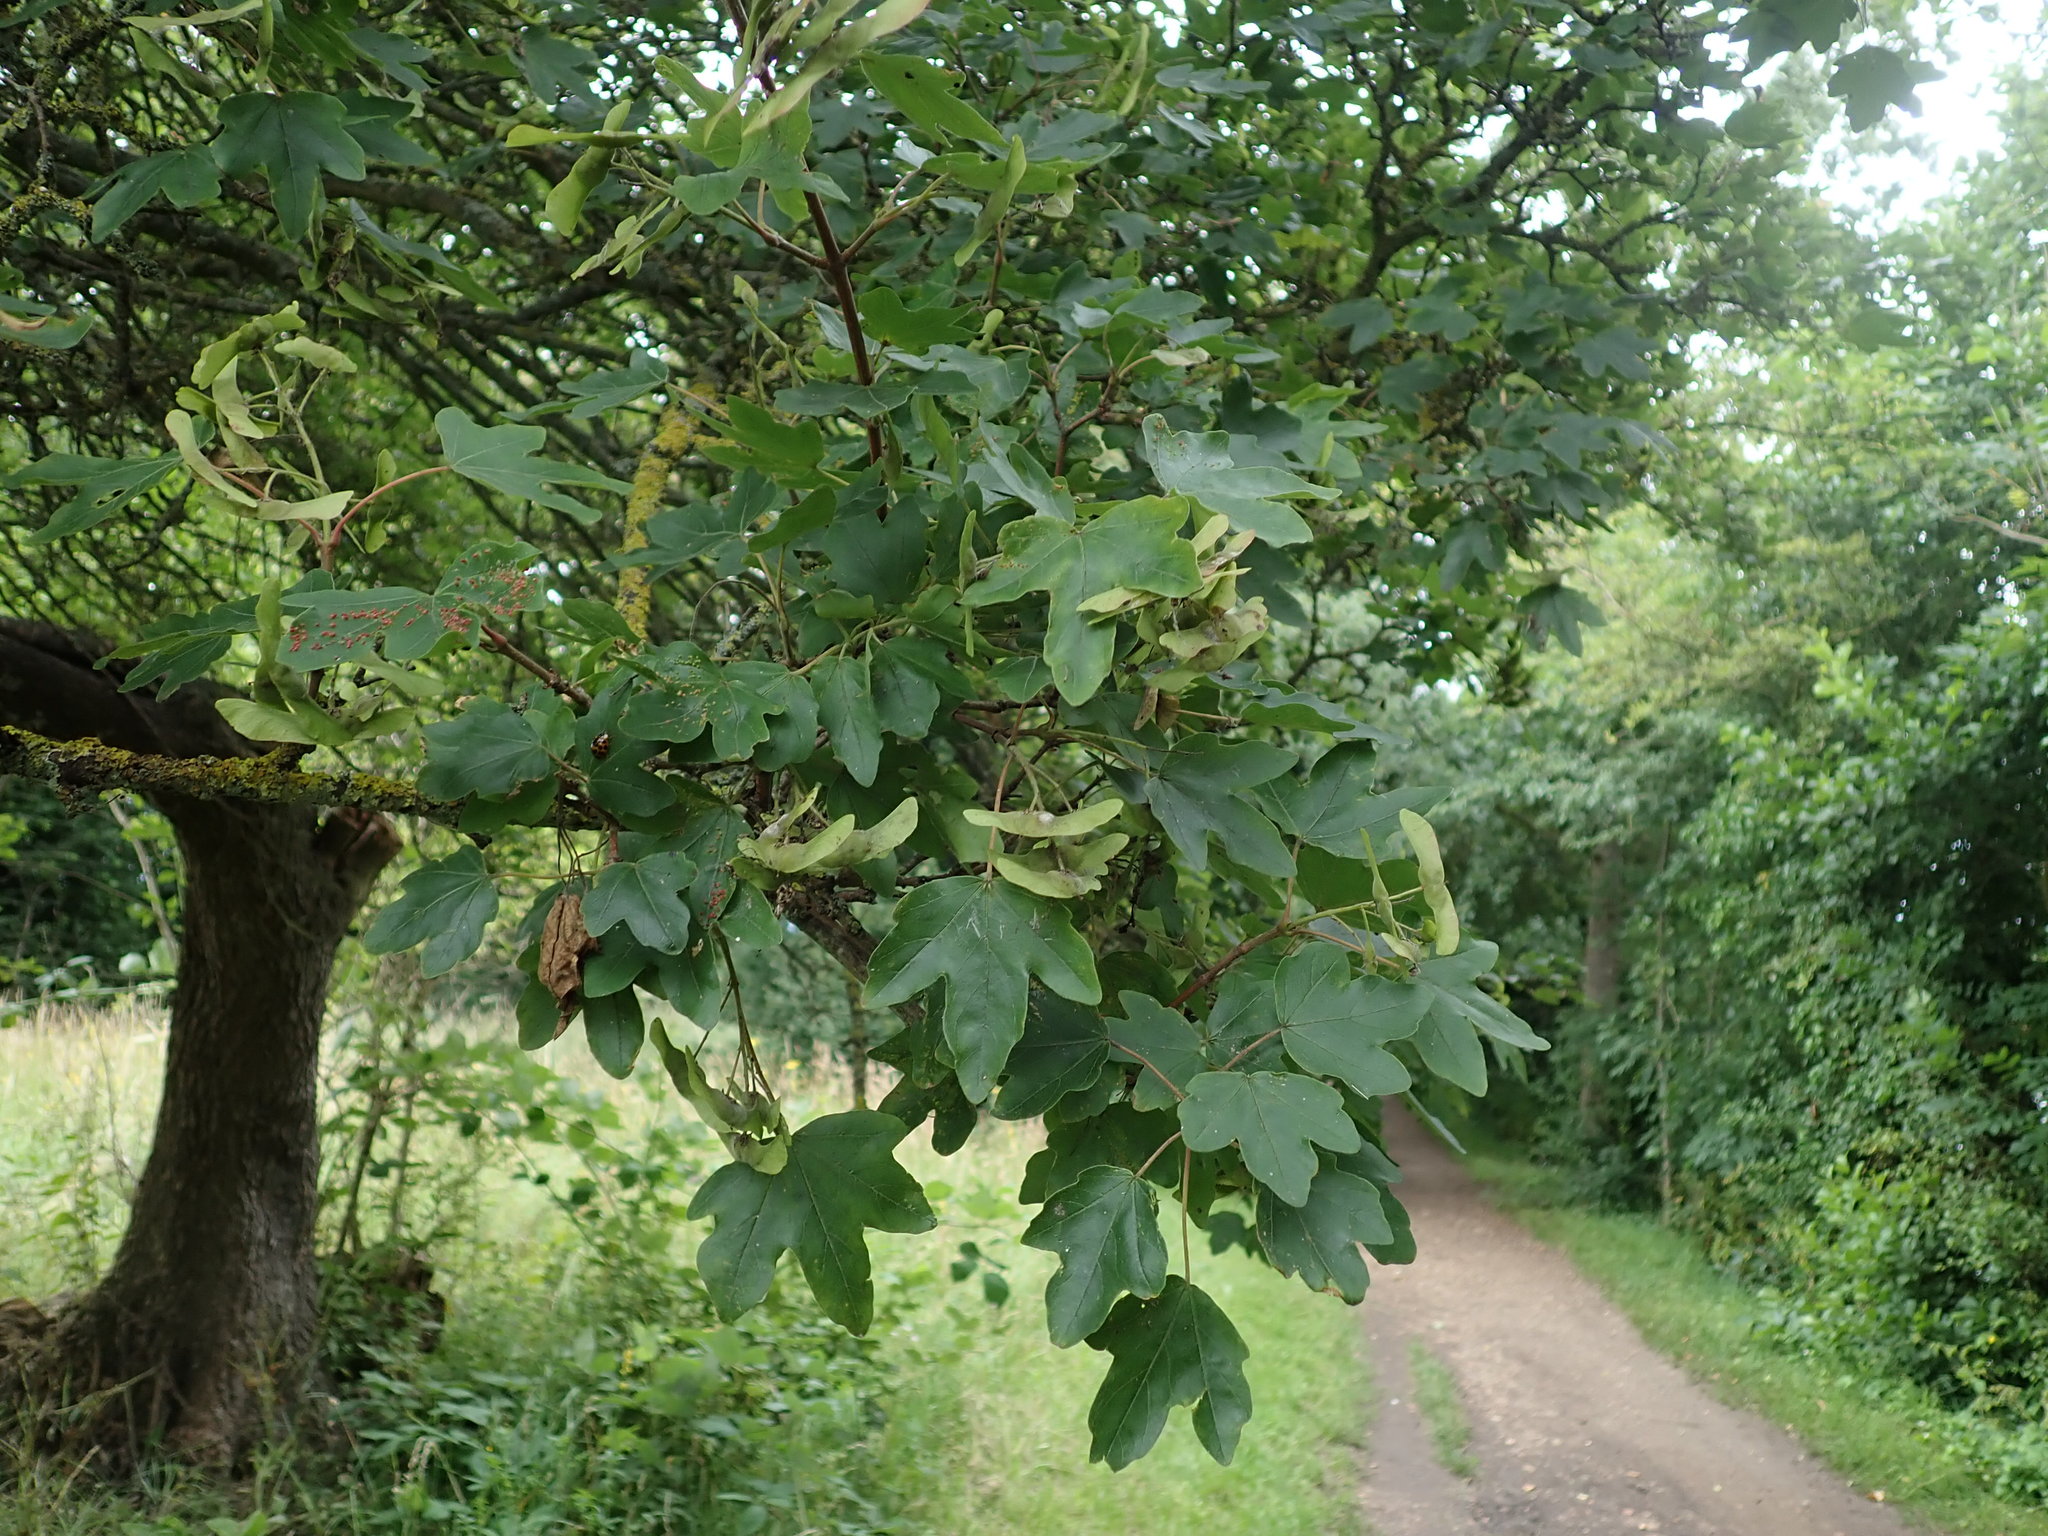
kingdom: Plantae
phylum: Tracheophyta
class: Magnoliopsida
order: Sapindales
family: Sapindaceae
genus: Acer
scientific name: Acer campestre
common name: Field maple
